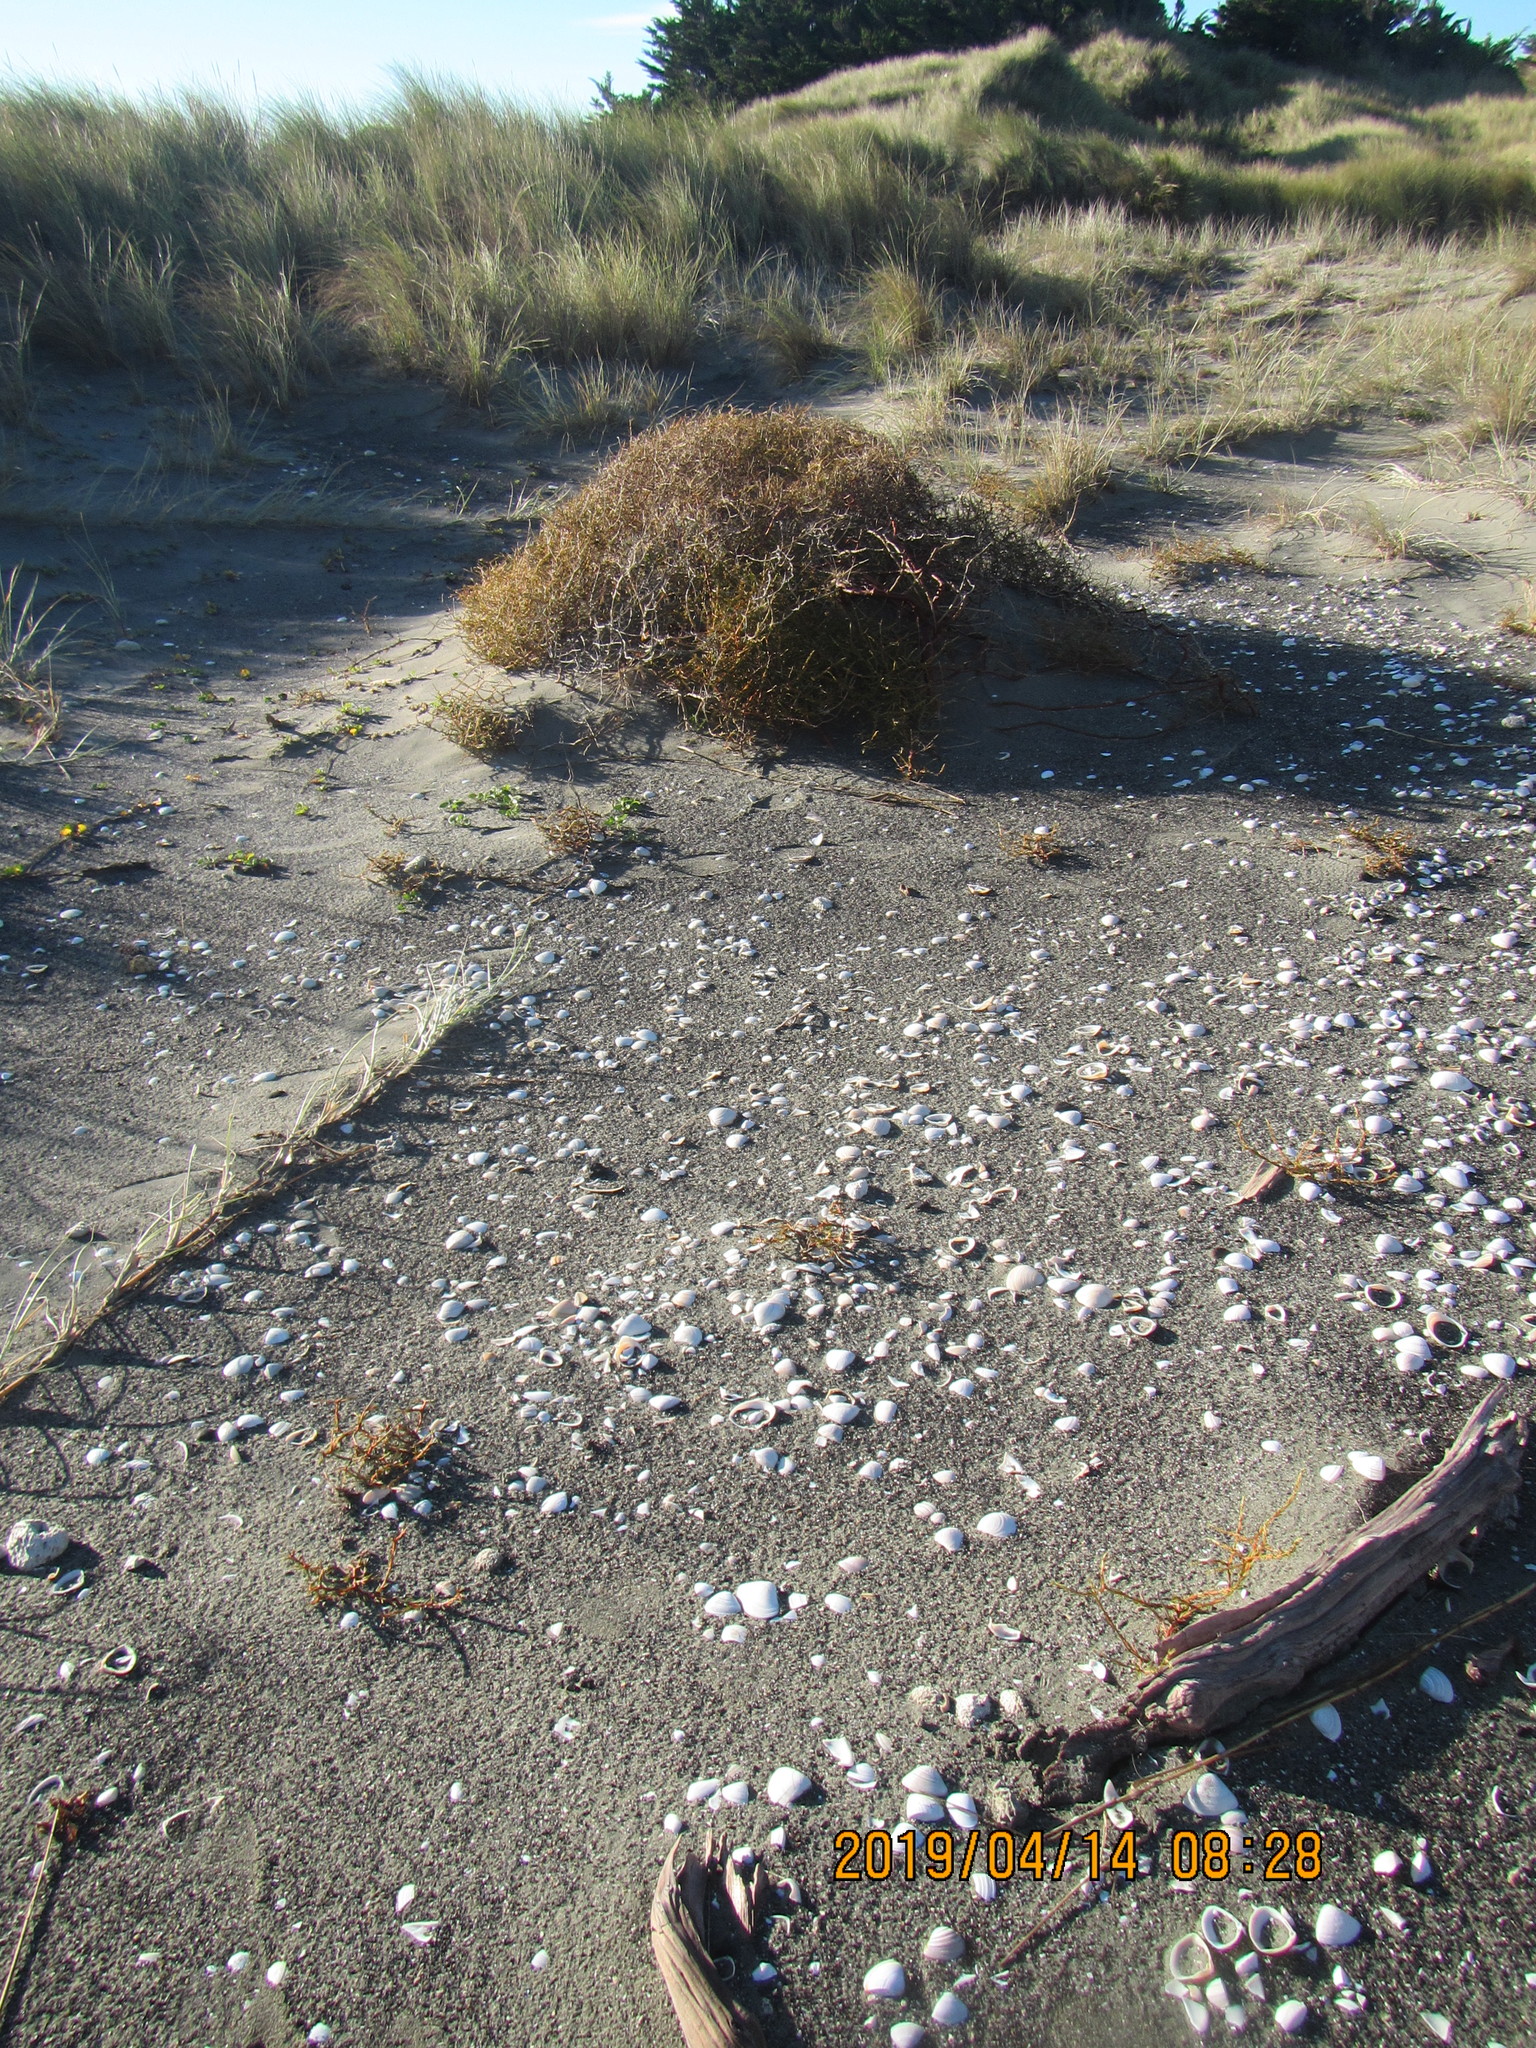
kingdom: Plantae
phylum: Tracheophyta
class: Magnoliopsida
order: Gentianales
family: Rubiaceae
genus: Coprosma
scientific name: Coprosma acerosa
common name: Sand coprosma
